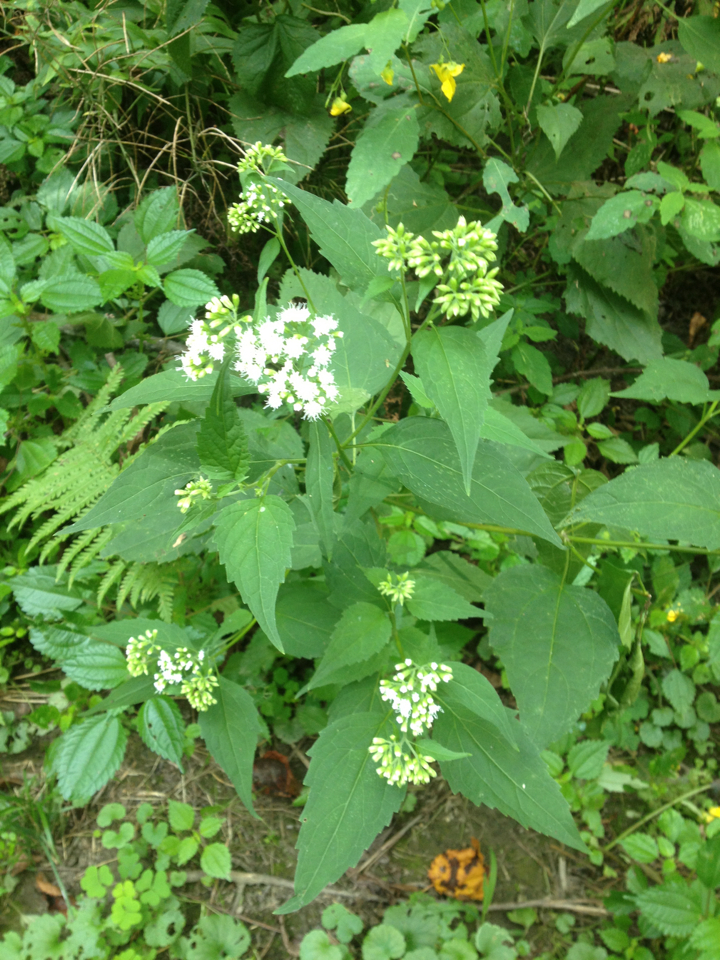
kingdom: Plantae
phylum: Tracheophyta
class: Magnoliopsida
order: Asterales
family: Asteraceae
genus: Ageratina
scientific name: Ageratina altissima
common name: White snakeroot
